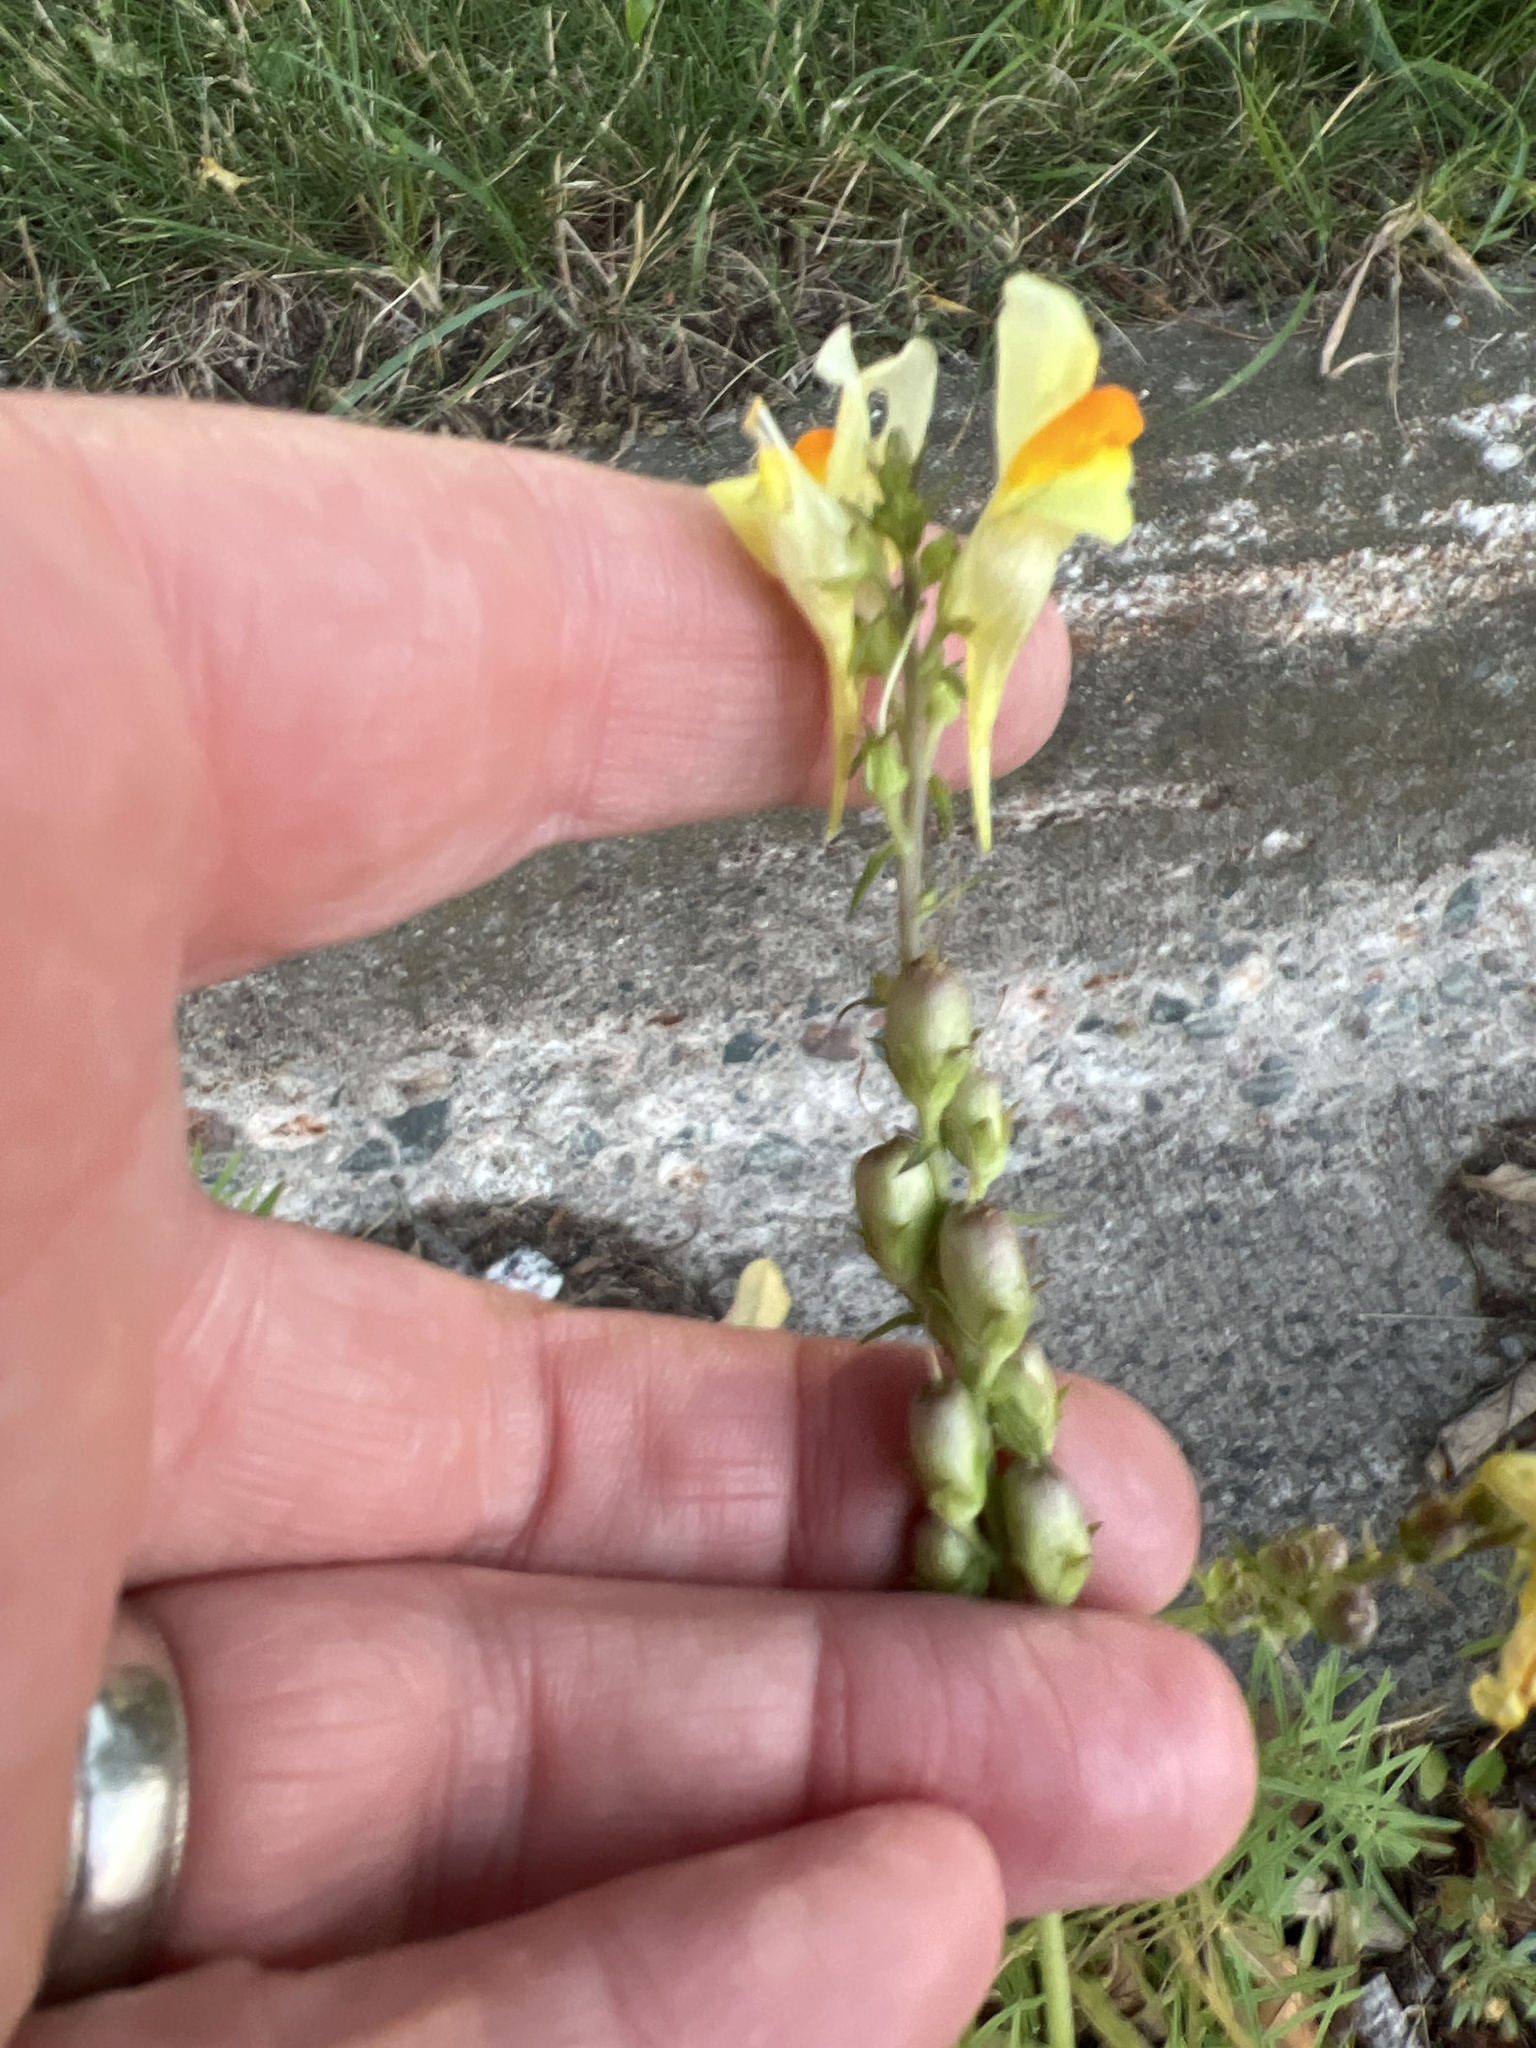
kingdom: Plantae
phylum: Tracheophyta
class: Magnoliopsida
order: Lamiales
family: Plantaginaceae
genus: Linaria
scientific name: Linaria vulgaris
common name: Butter and eggs
